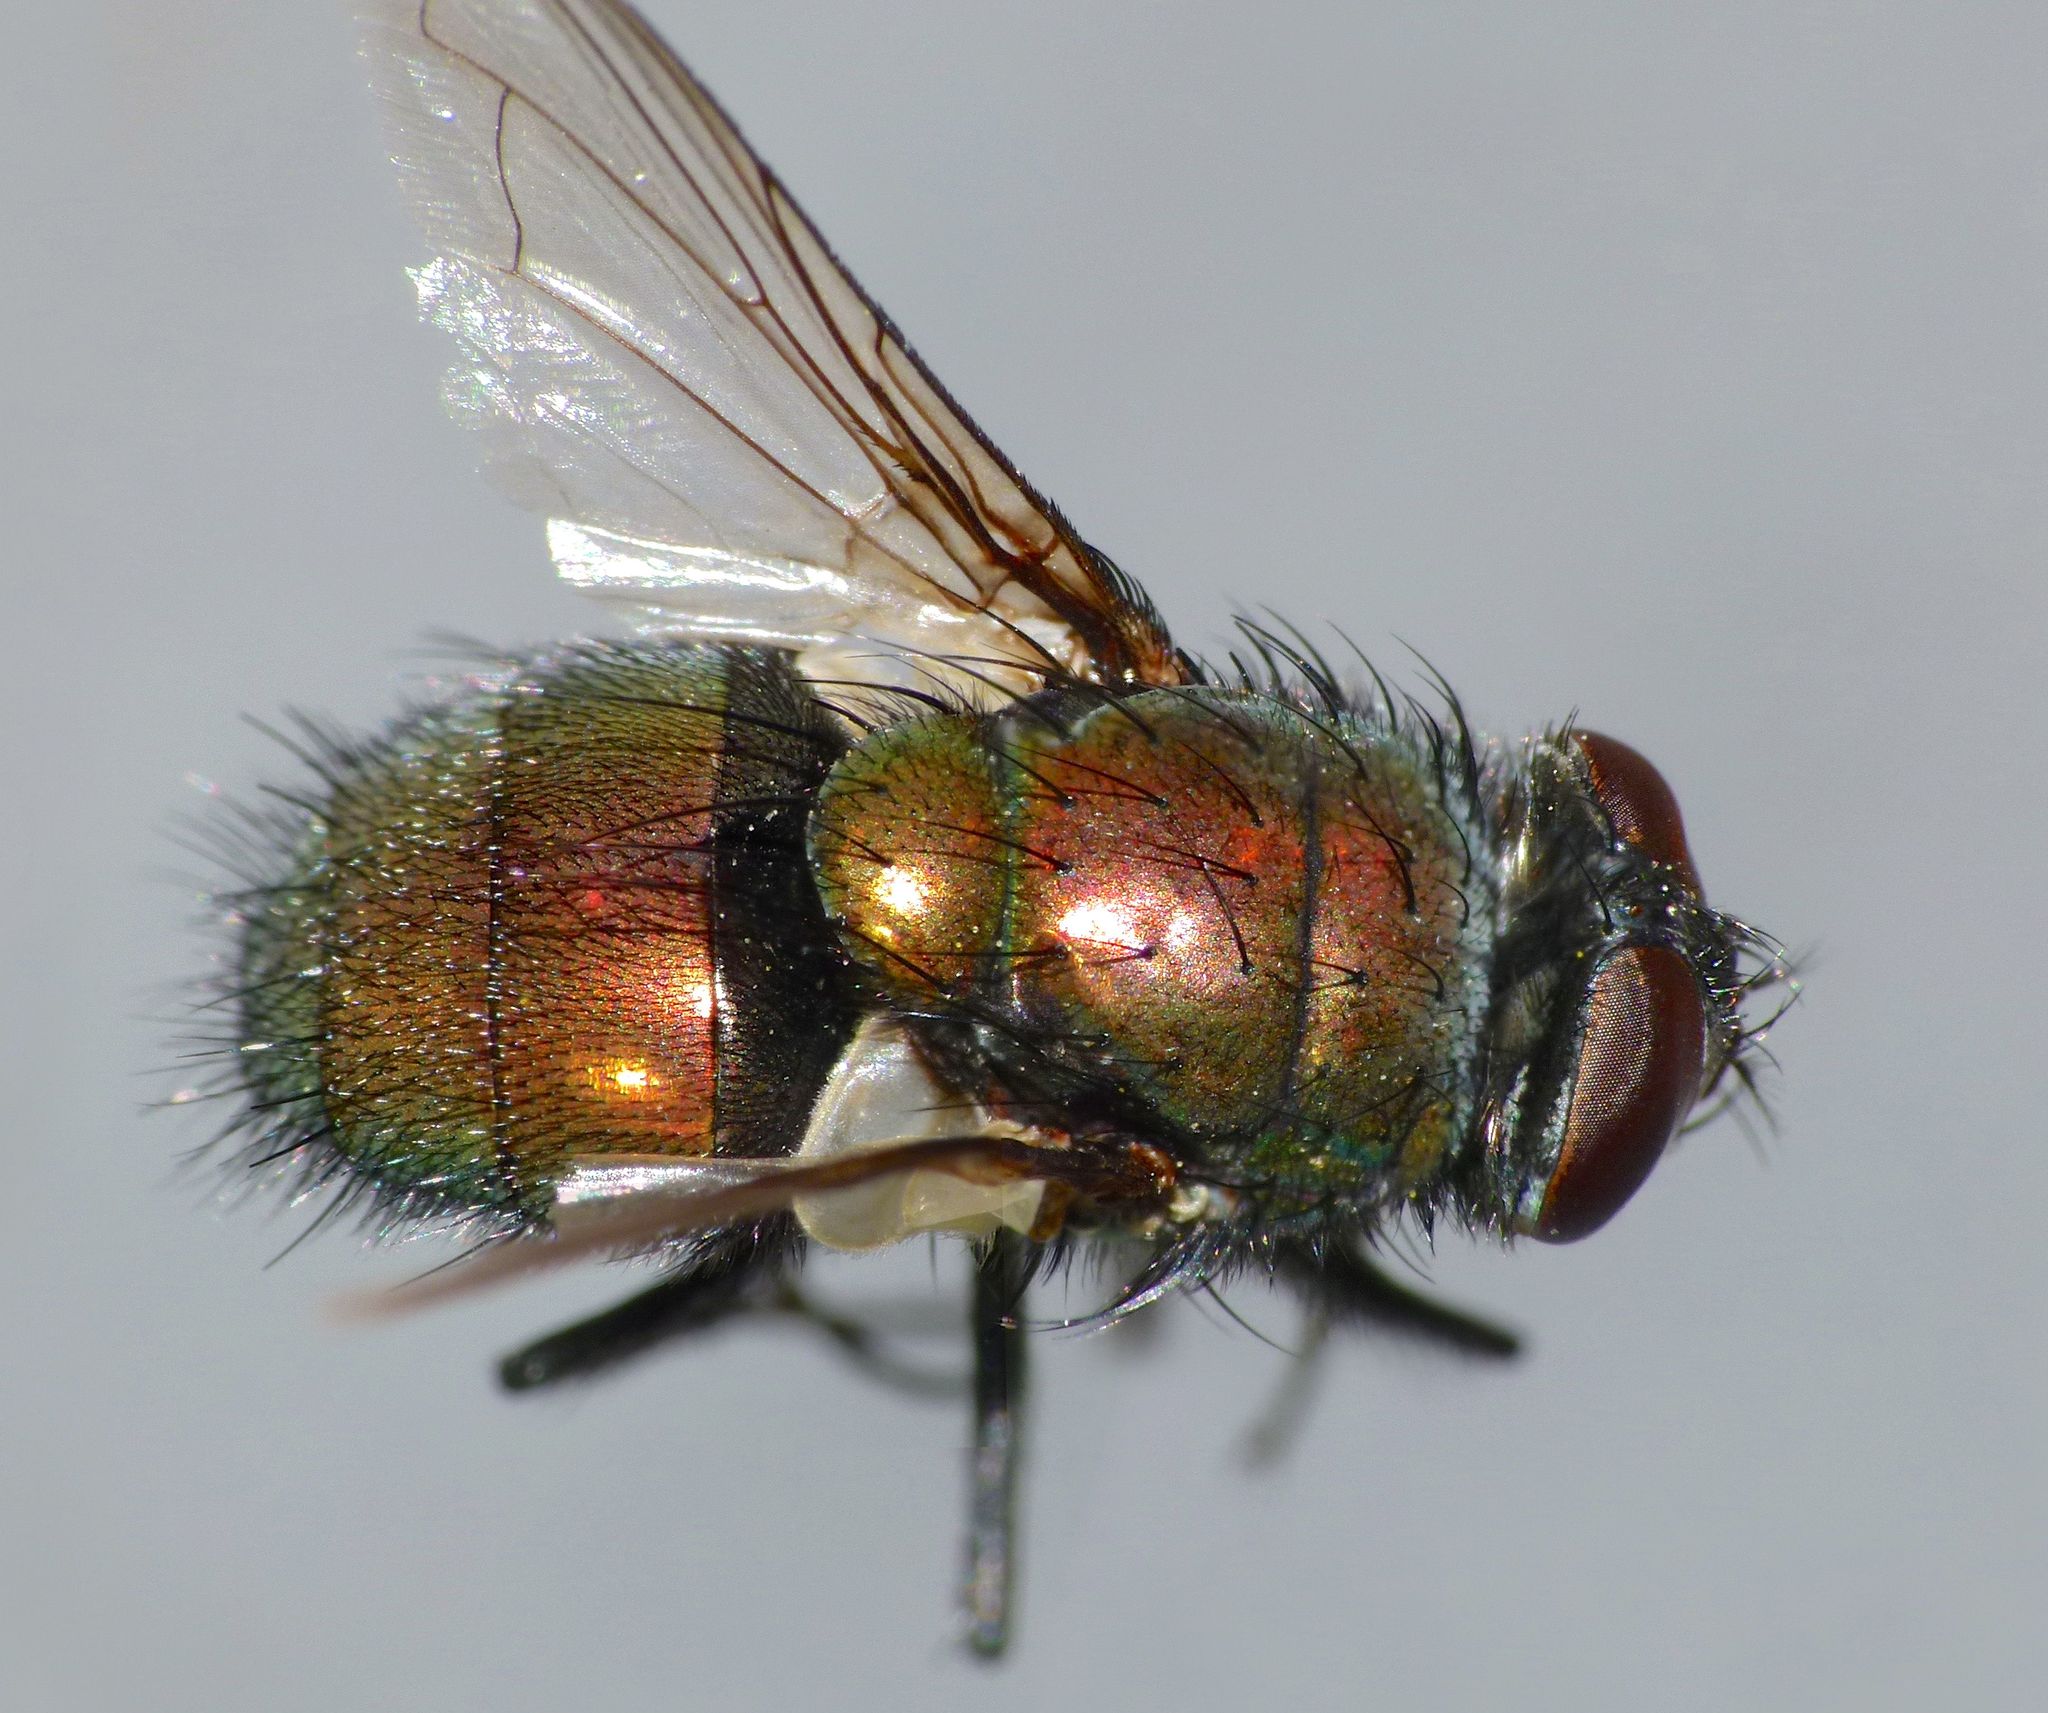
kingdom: Animalia
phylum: Arthropoda
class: Insecta
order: Diptera
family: Calliphoridae
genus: Lucilia
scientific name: Lucilia sericata
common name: Blow fly
